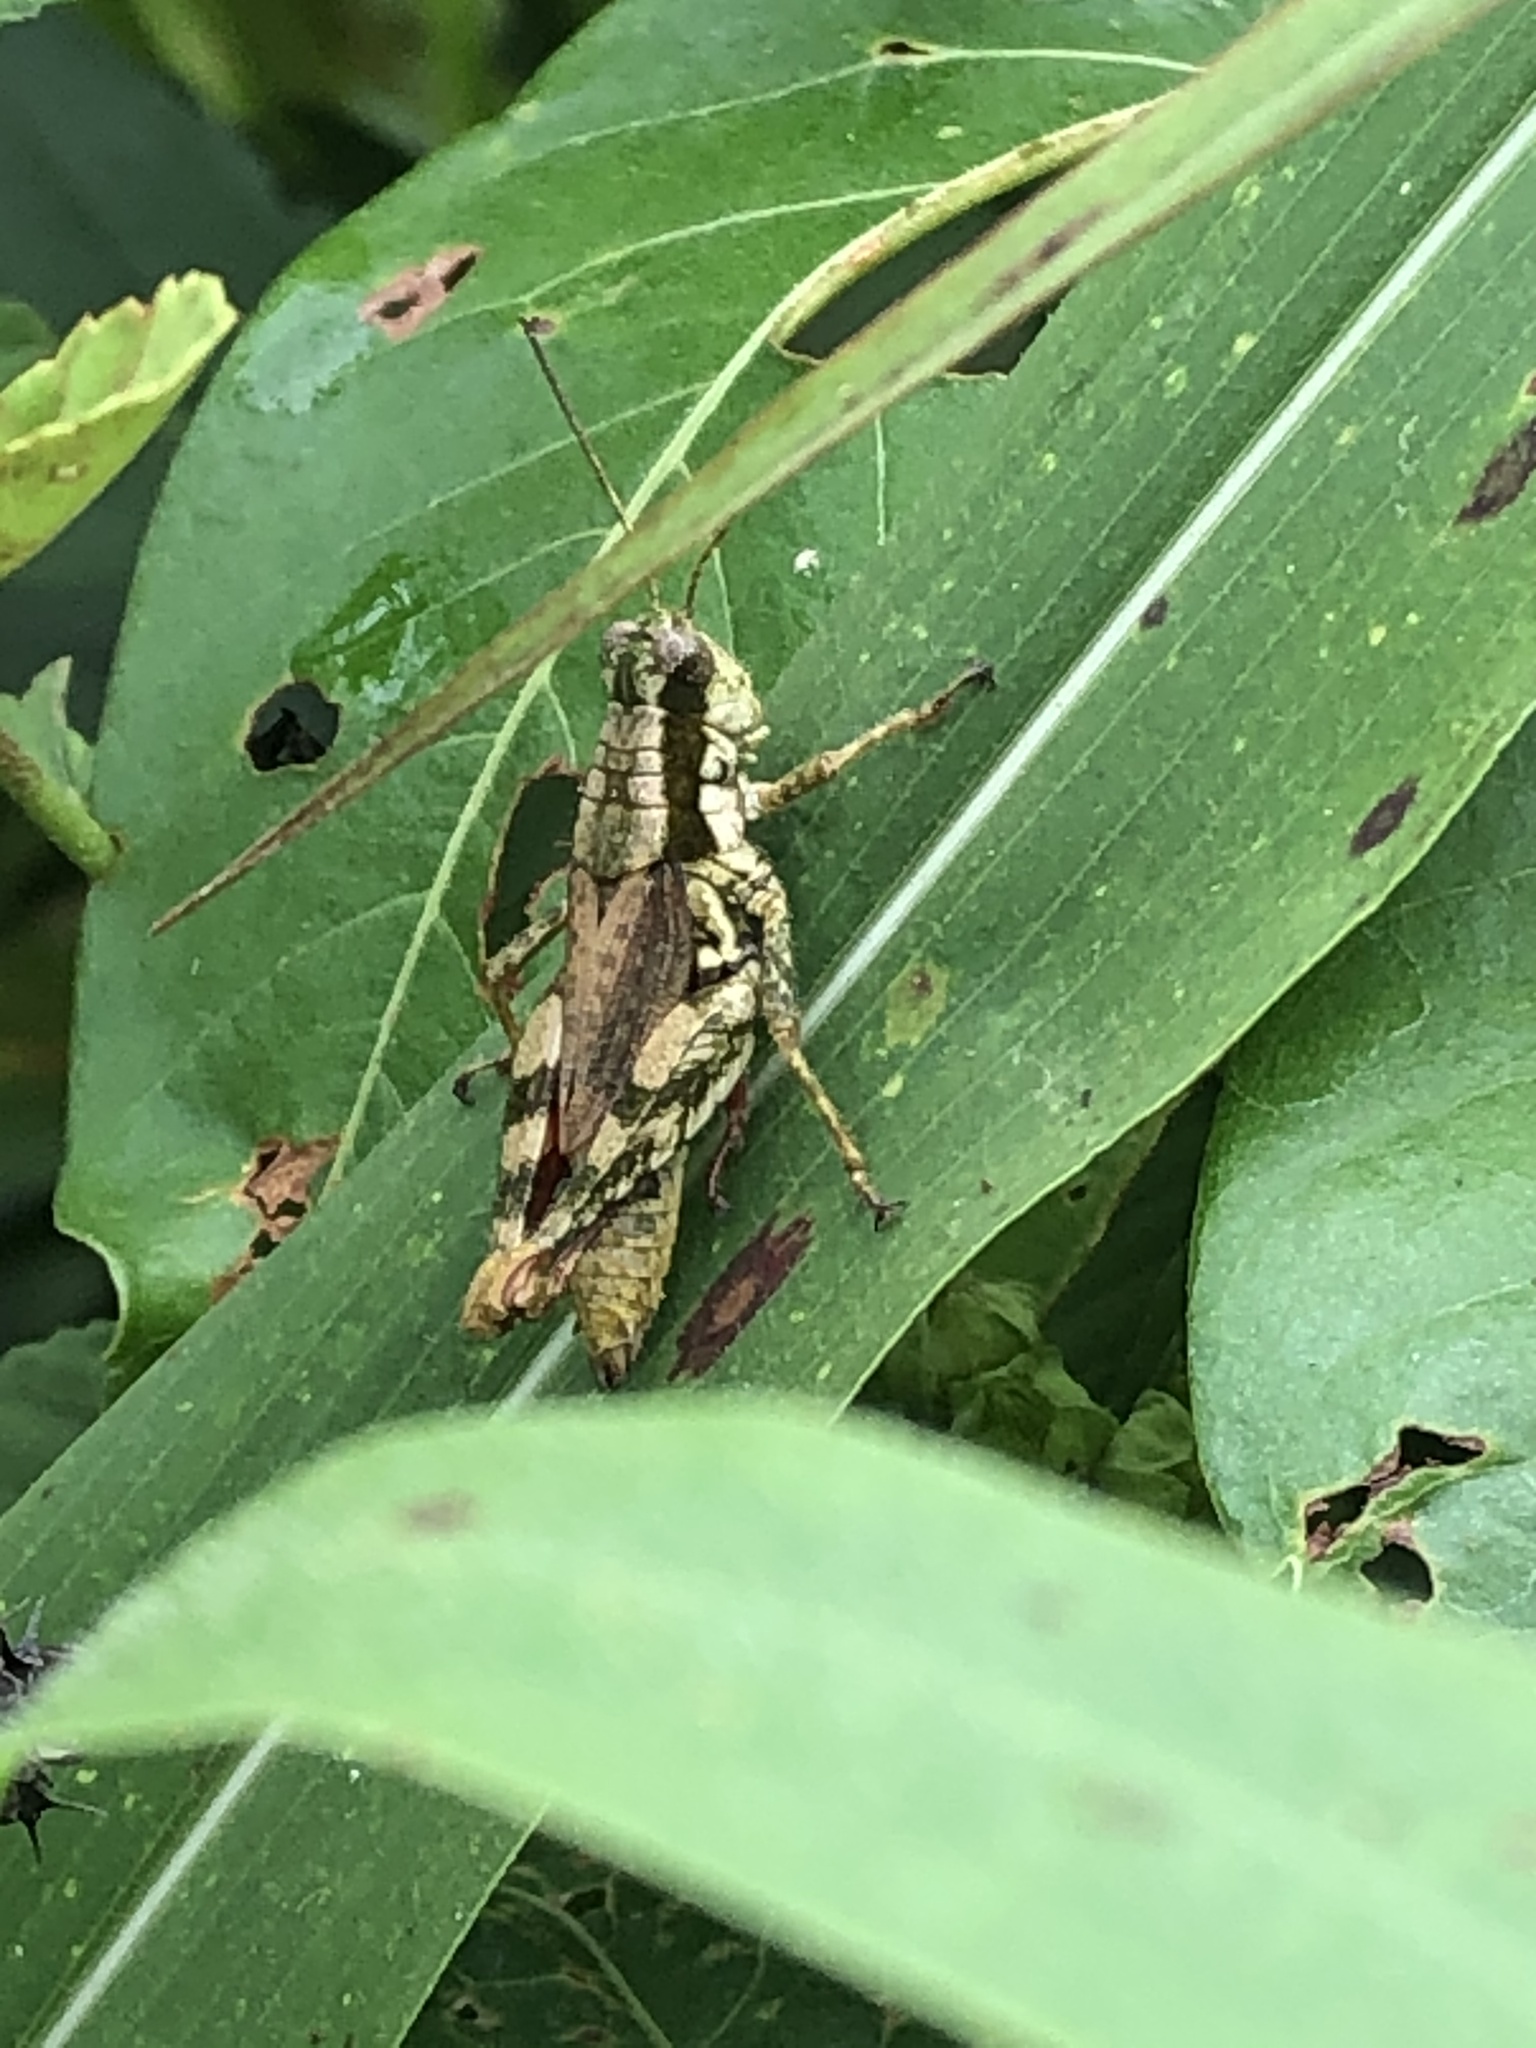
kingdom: Animalia
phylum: Arthropoda
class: Insecta
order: Orthoptera
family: Acrididae
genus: Ponderacris
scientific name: Ponderacris inca
